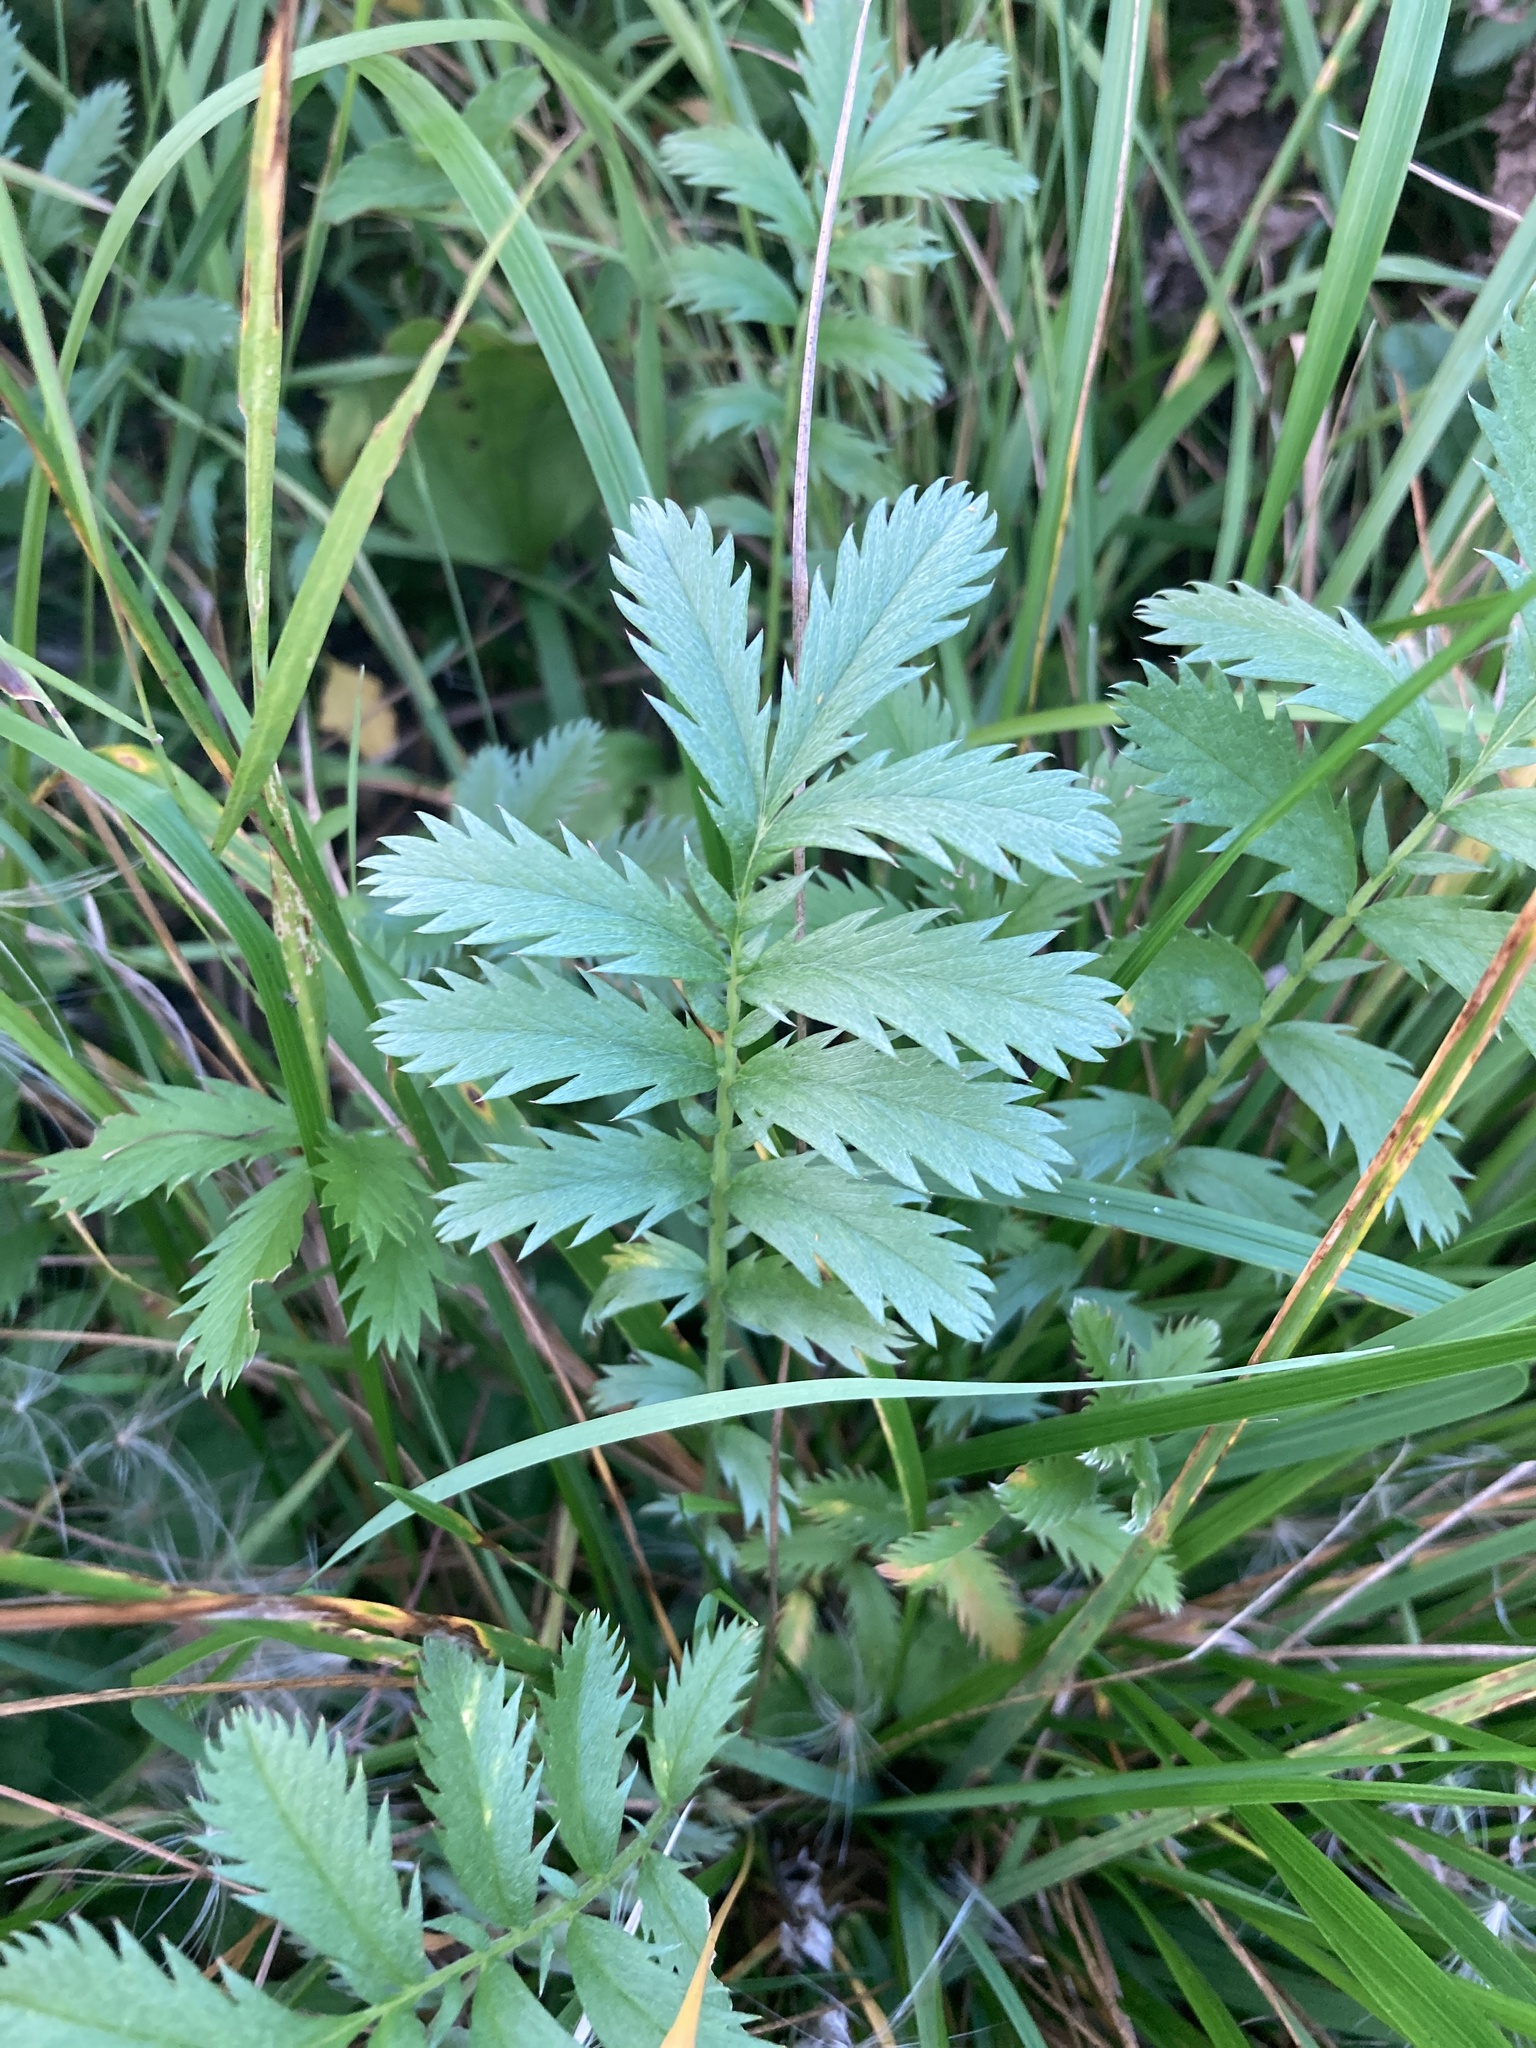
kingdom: Plantae
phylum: Tracheophyta
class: Magnoliopsida
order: Rosales
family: Rosaceae
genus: Argentina
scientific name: Argentina anserina
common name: Common silverweed
